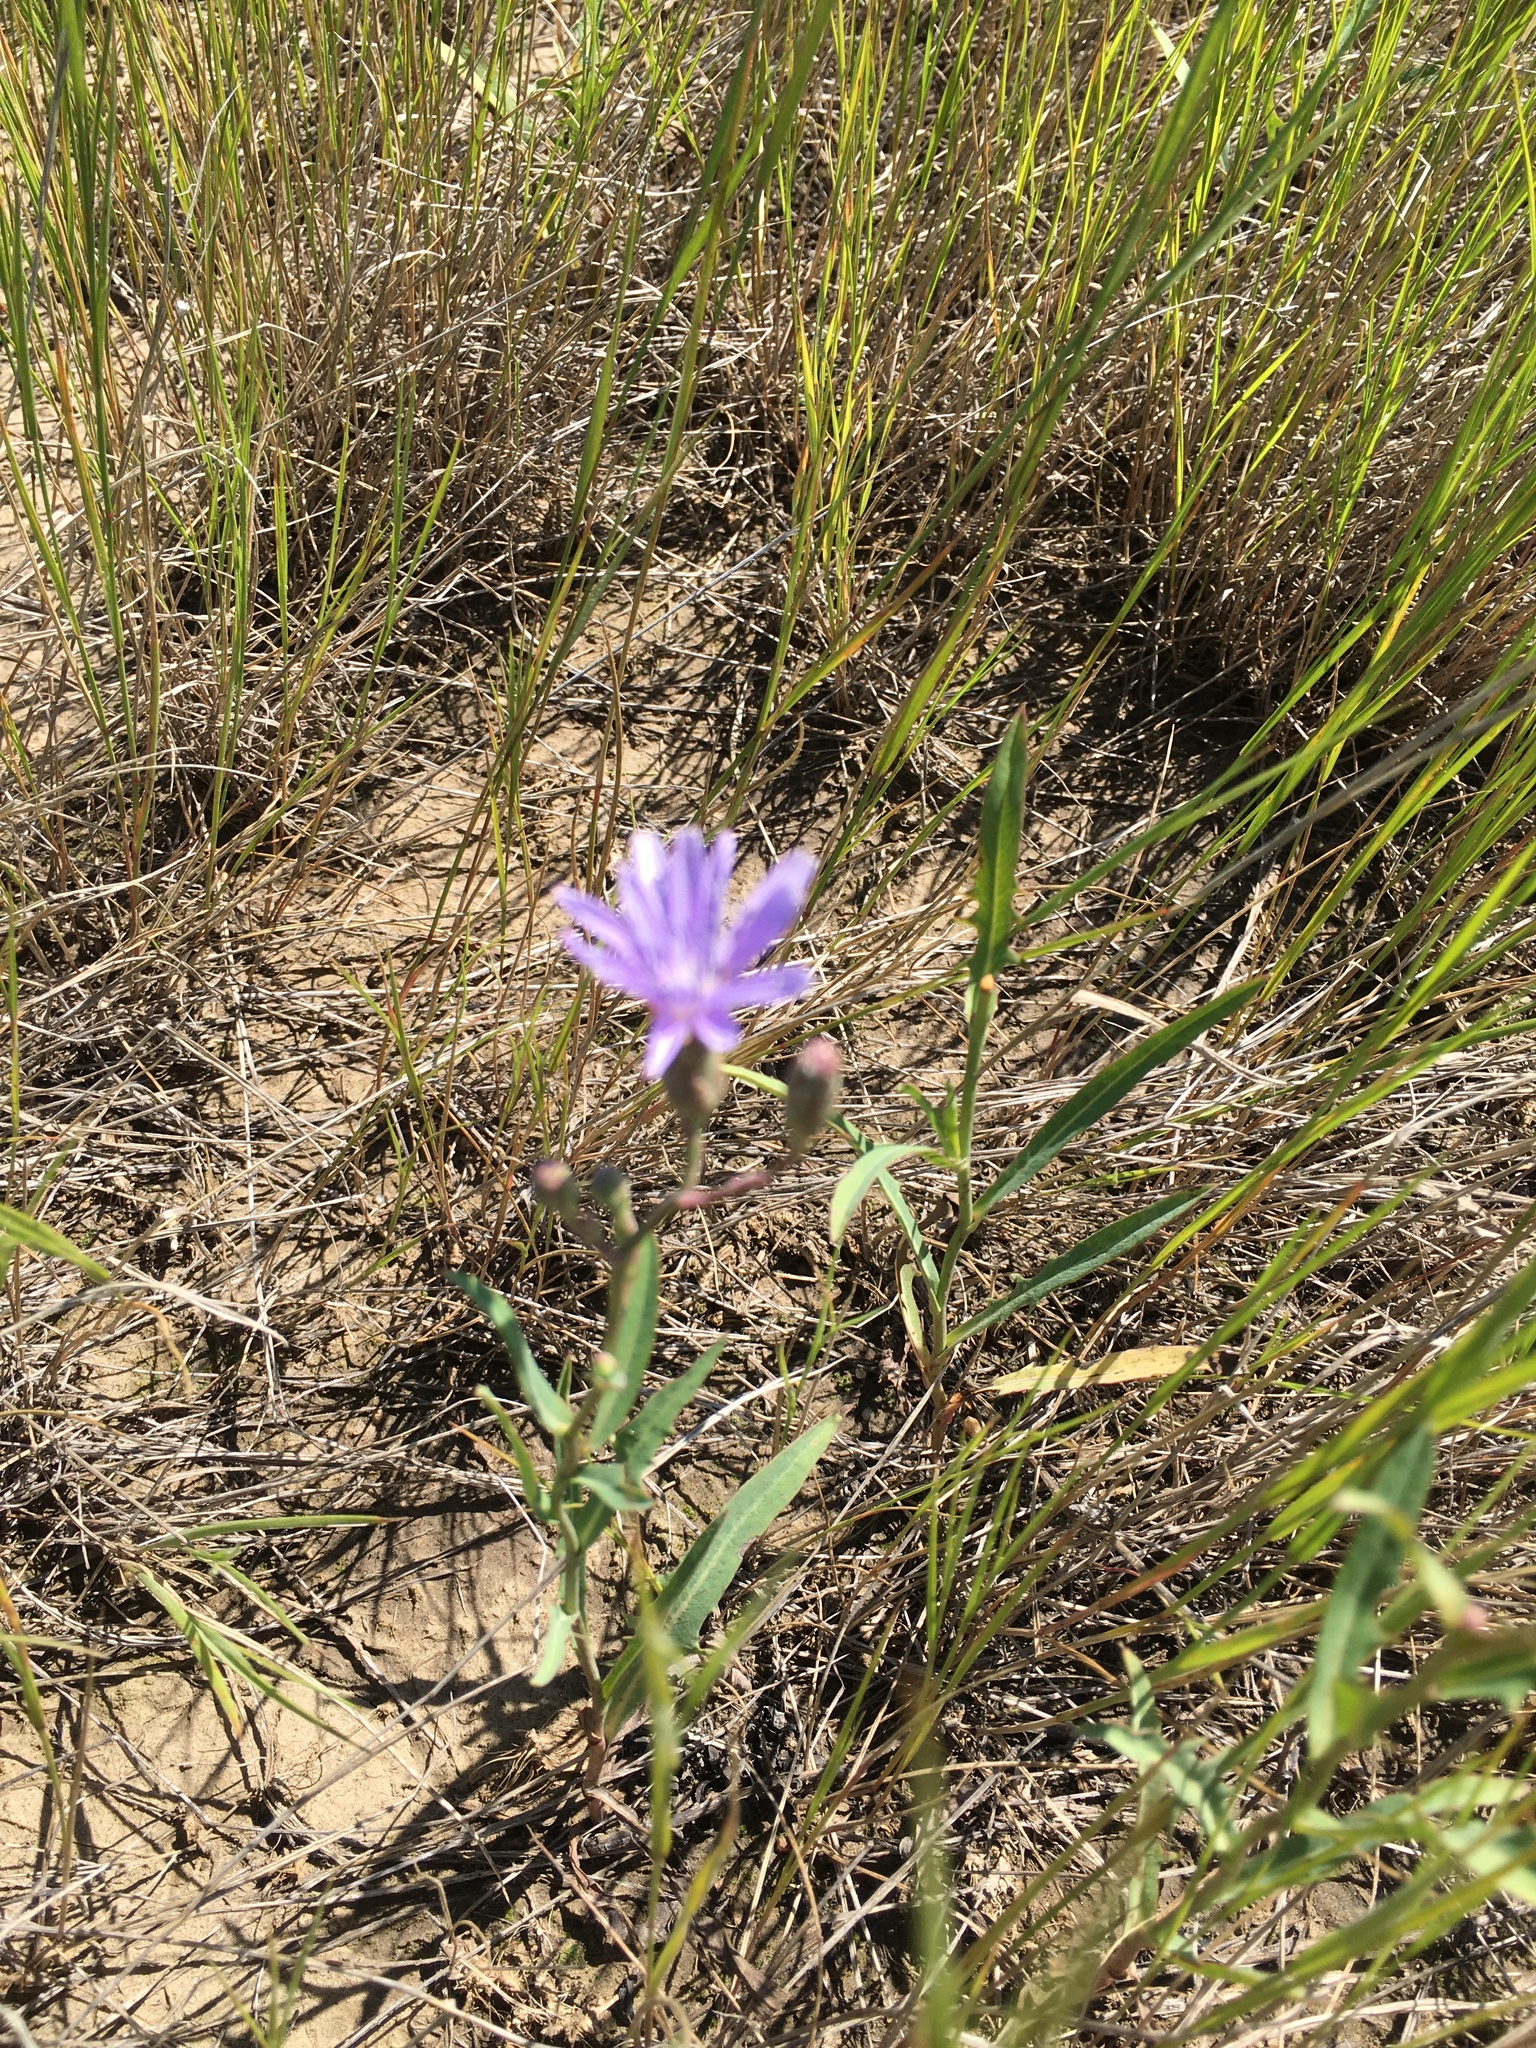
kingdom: Plantae
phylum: Tracheophyta
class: Magnoliopsida
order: Asterales
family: Asteraceae
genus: Lactuca
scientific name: Lactuca pulchella
